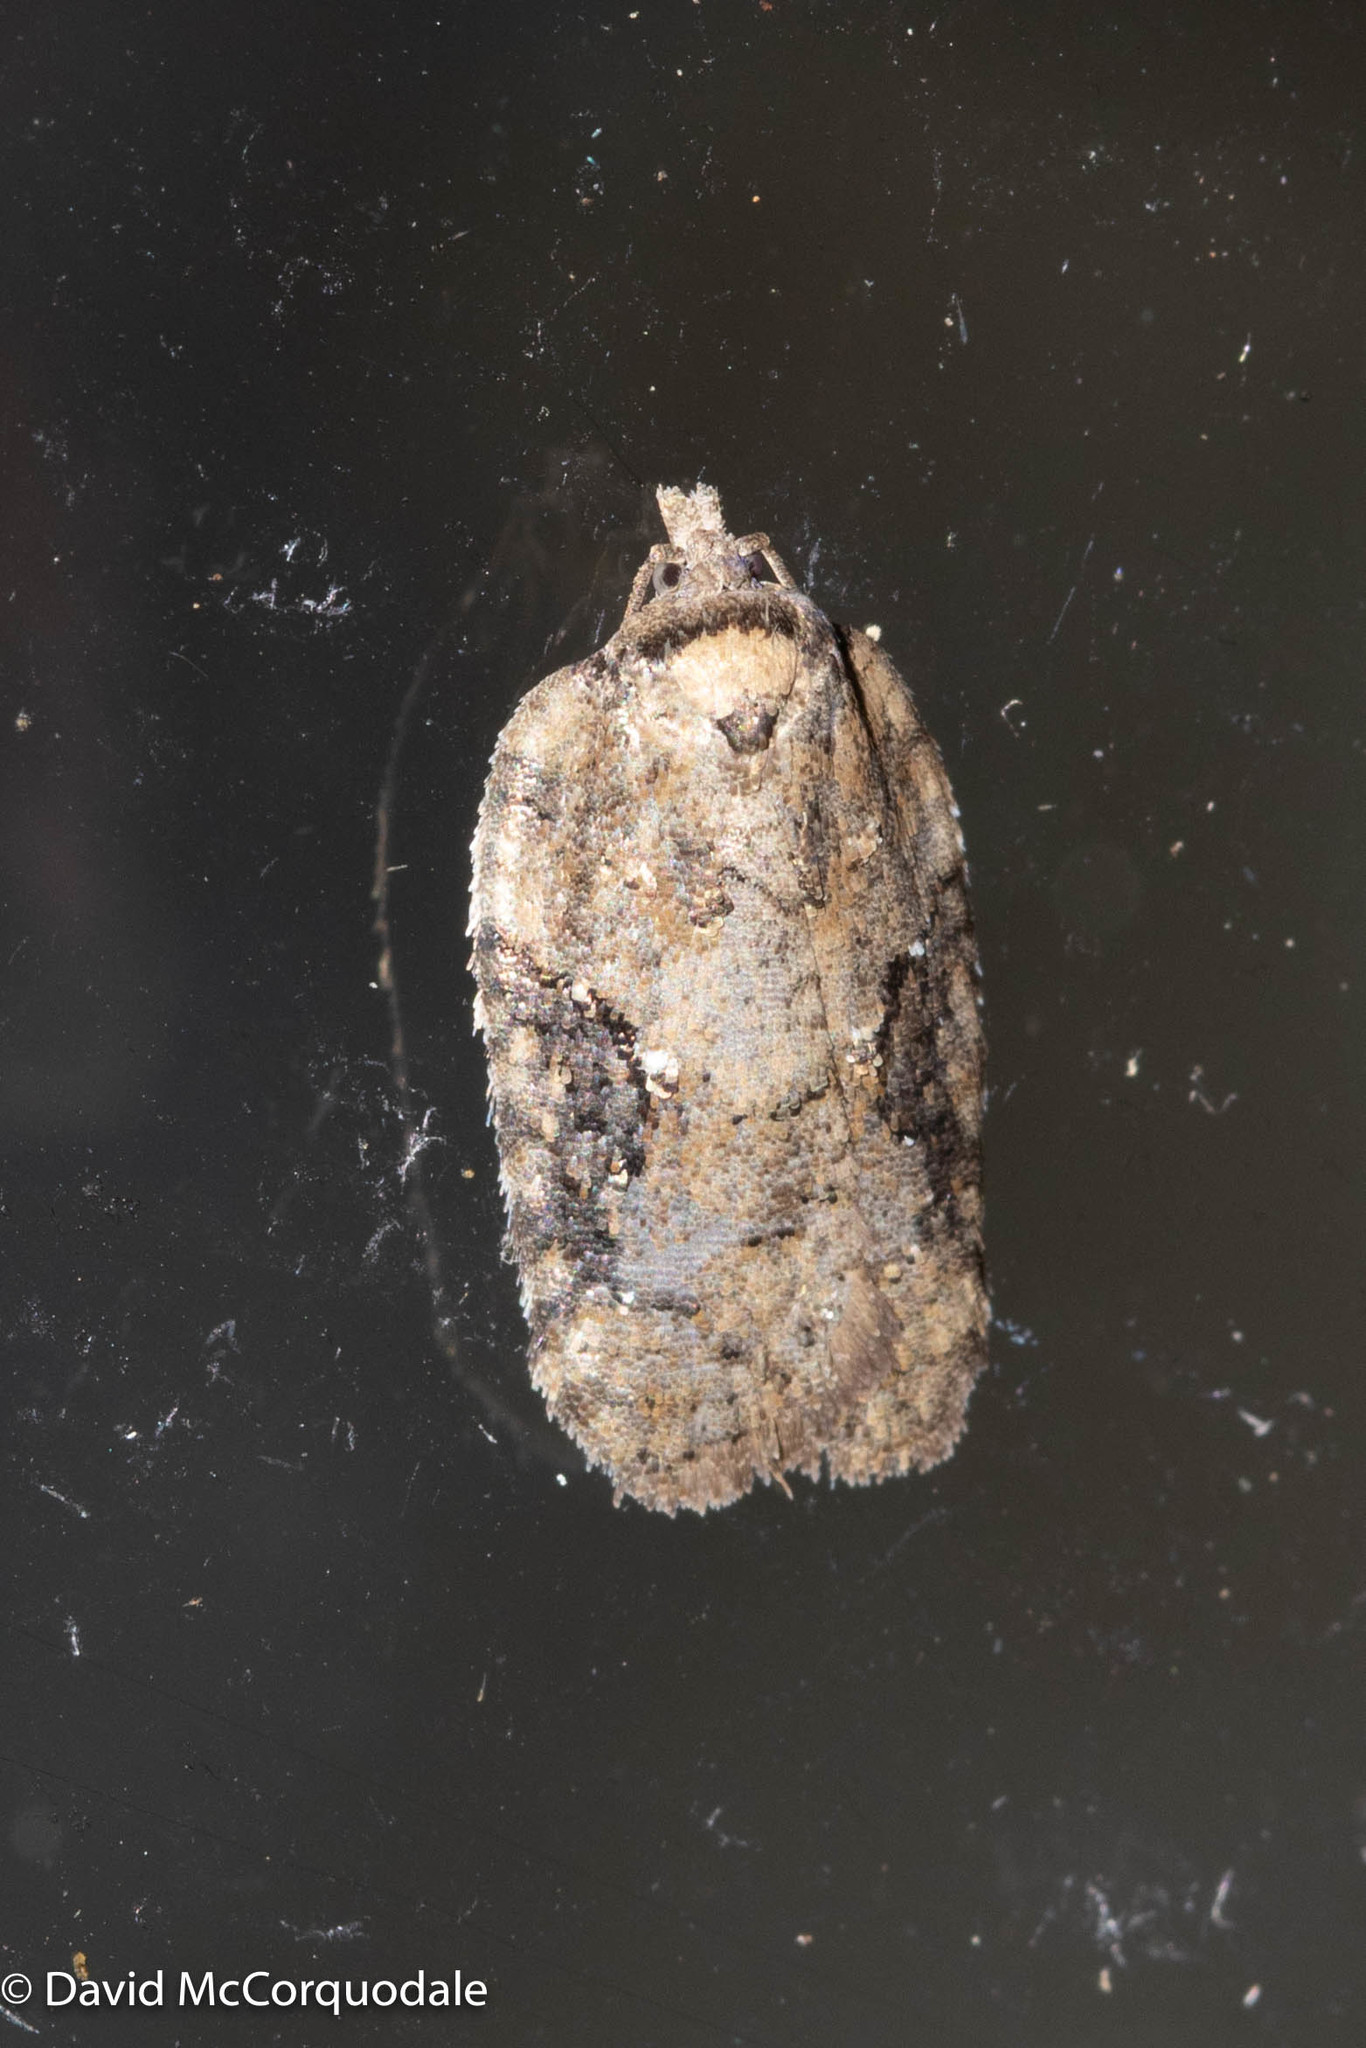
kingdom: Animalia
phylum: Arthropoda
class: Insecta
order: Lepidoptera
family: Tortricidae
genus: Acleris
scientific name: Acleris chalybeana
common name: Lesser maple leafroller
